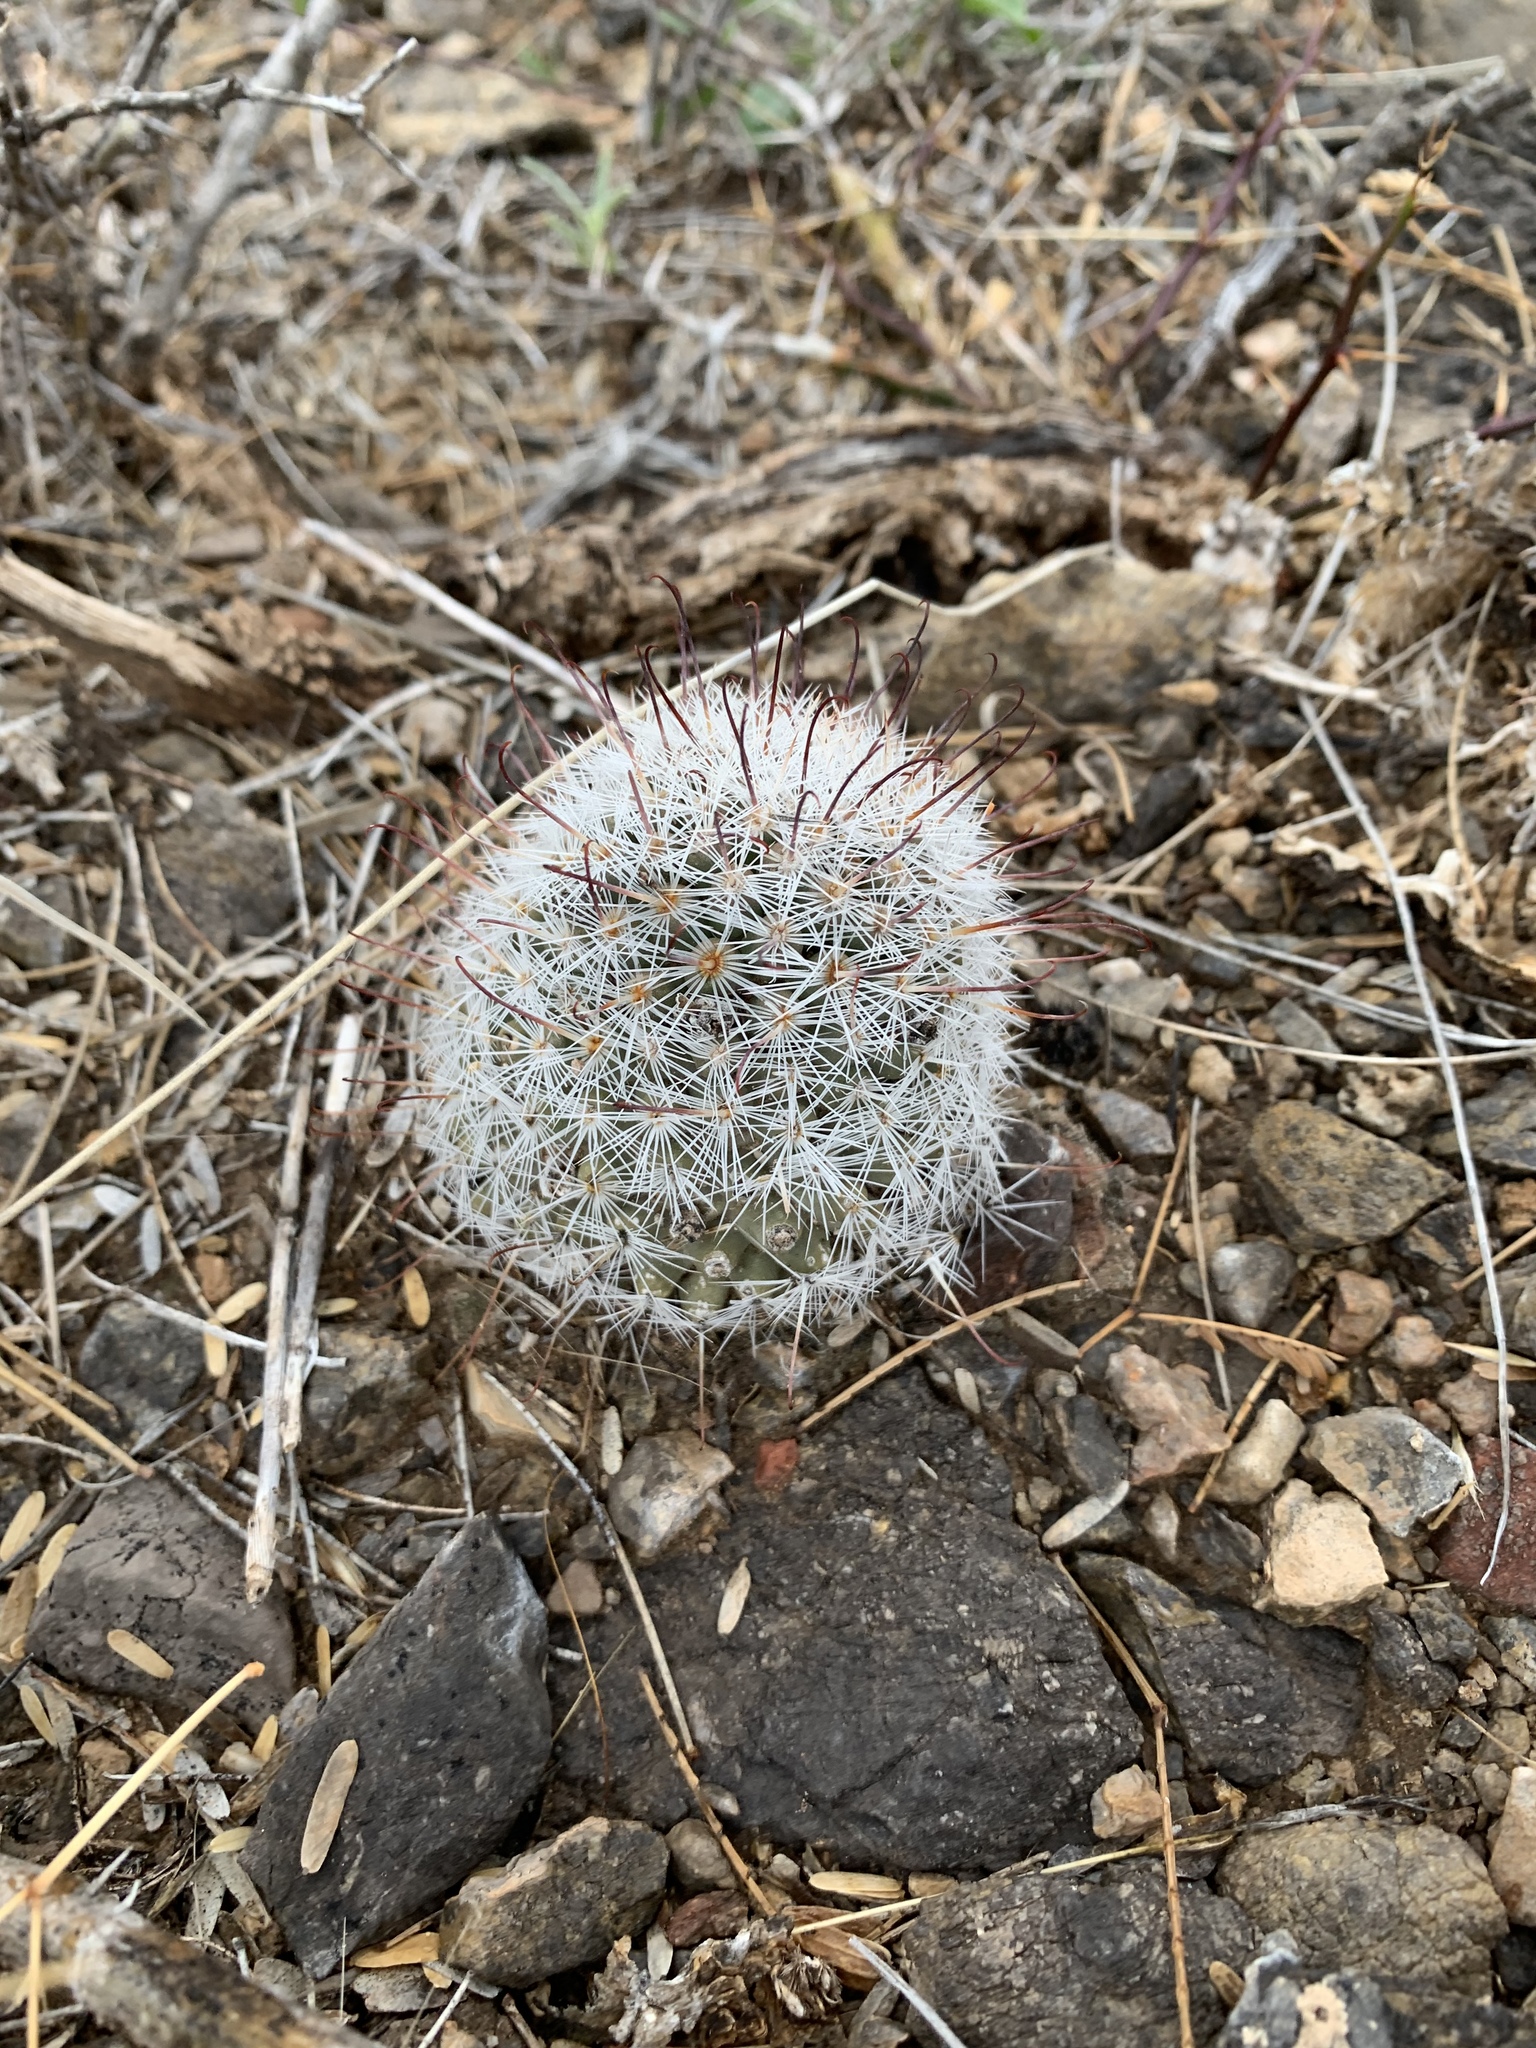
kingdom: Plantae
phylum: Tracheophyta
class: Magnoliopsida
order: Caryophyllales
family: Cactaceae
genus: Cochemiea
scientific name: Cochemiea grahamii
